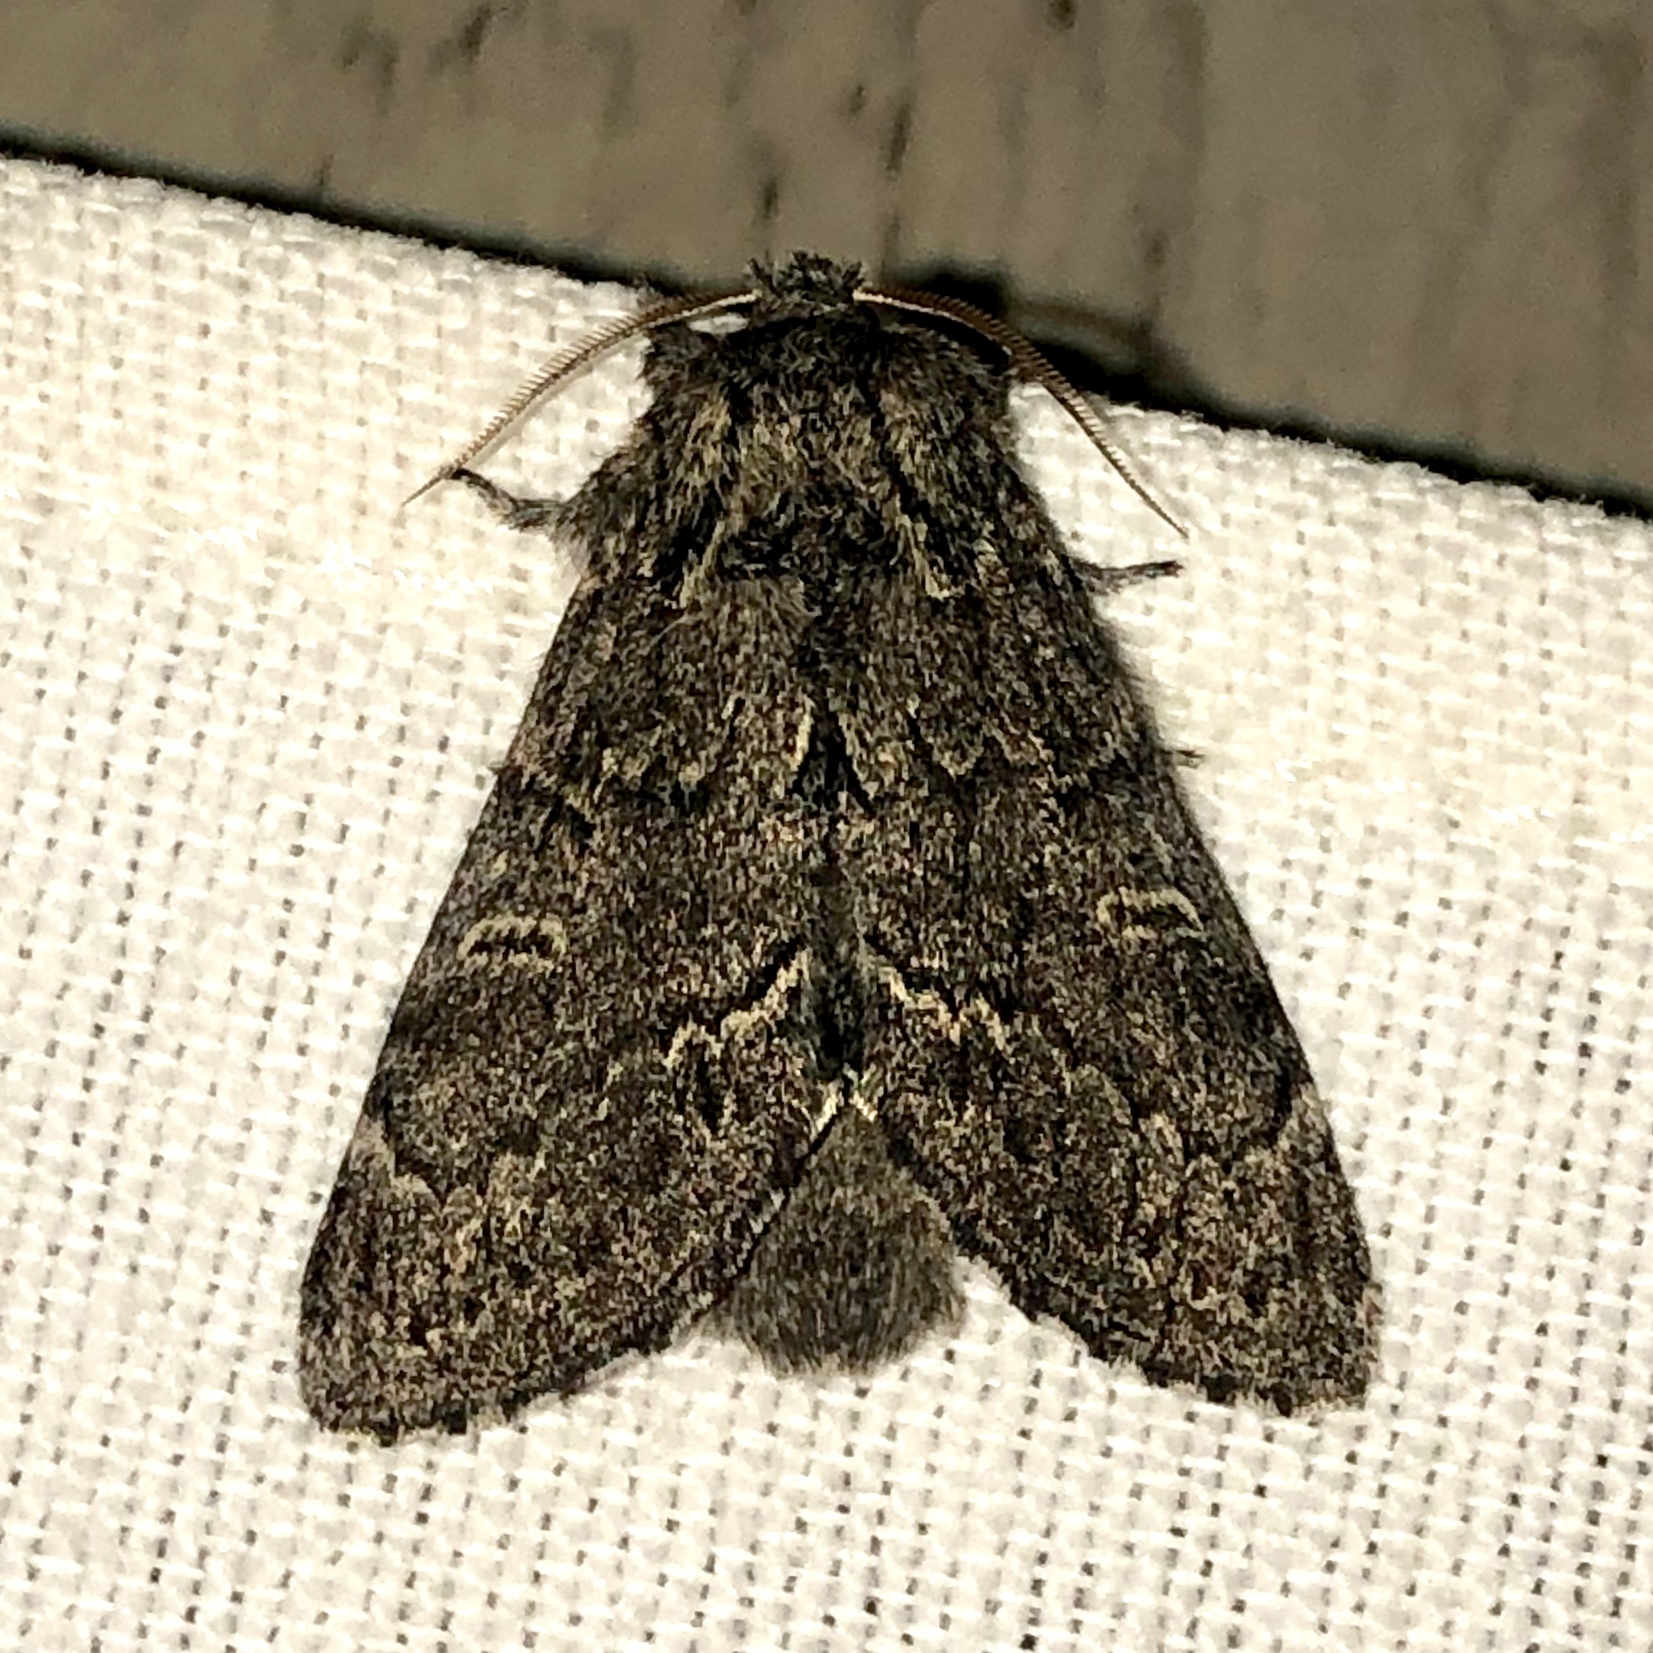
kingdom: Animalia
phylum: Arthropoda
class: Insecta
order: Lepidoptera
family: Notodontidae
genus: Notodonta
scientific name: Notodonta torva
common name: Large dark prominent
